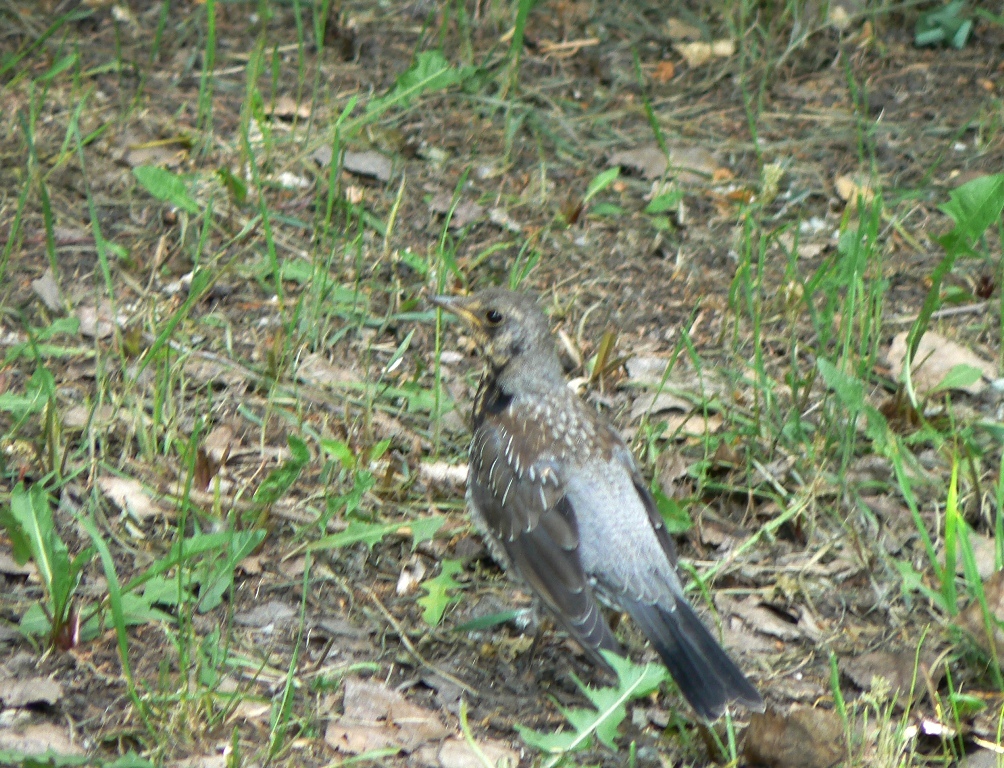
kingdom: Animalia
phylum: Chordata
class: Aves
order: Passeriformes
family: Turdidae
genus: Turdus
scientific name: Turdus pilaris
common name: Fieldfare
